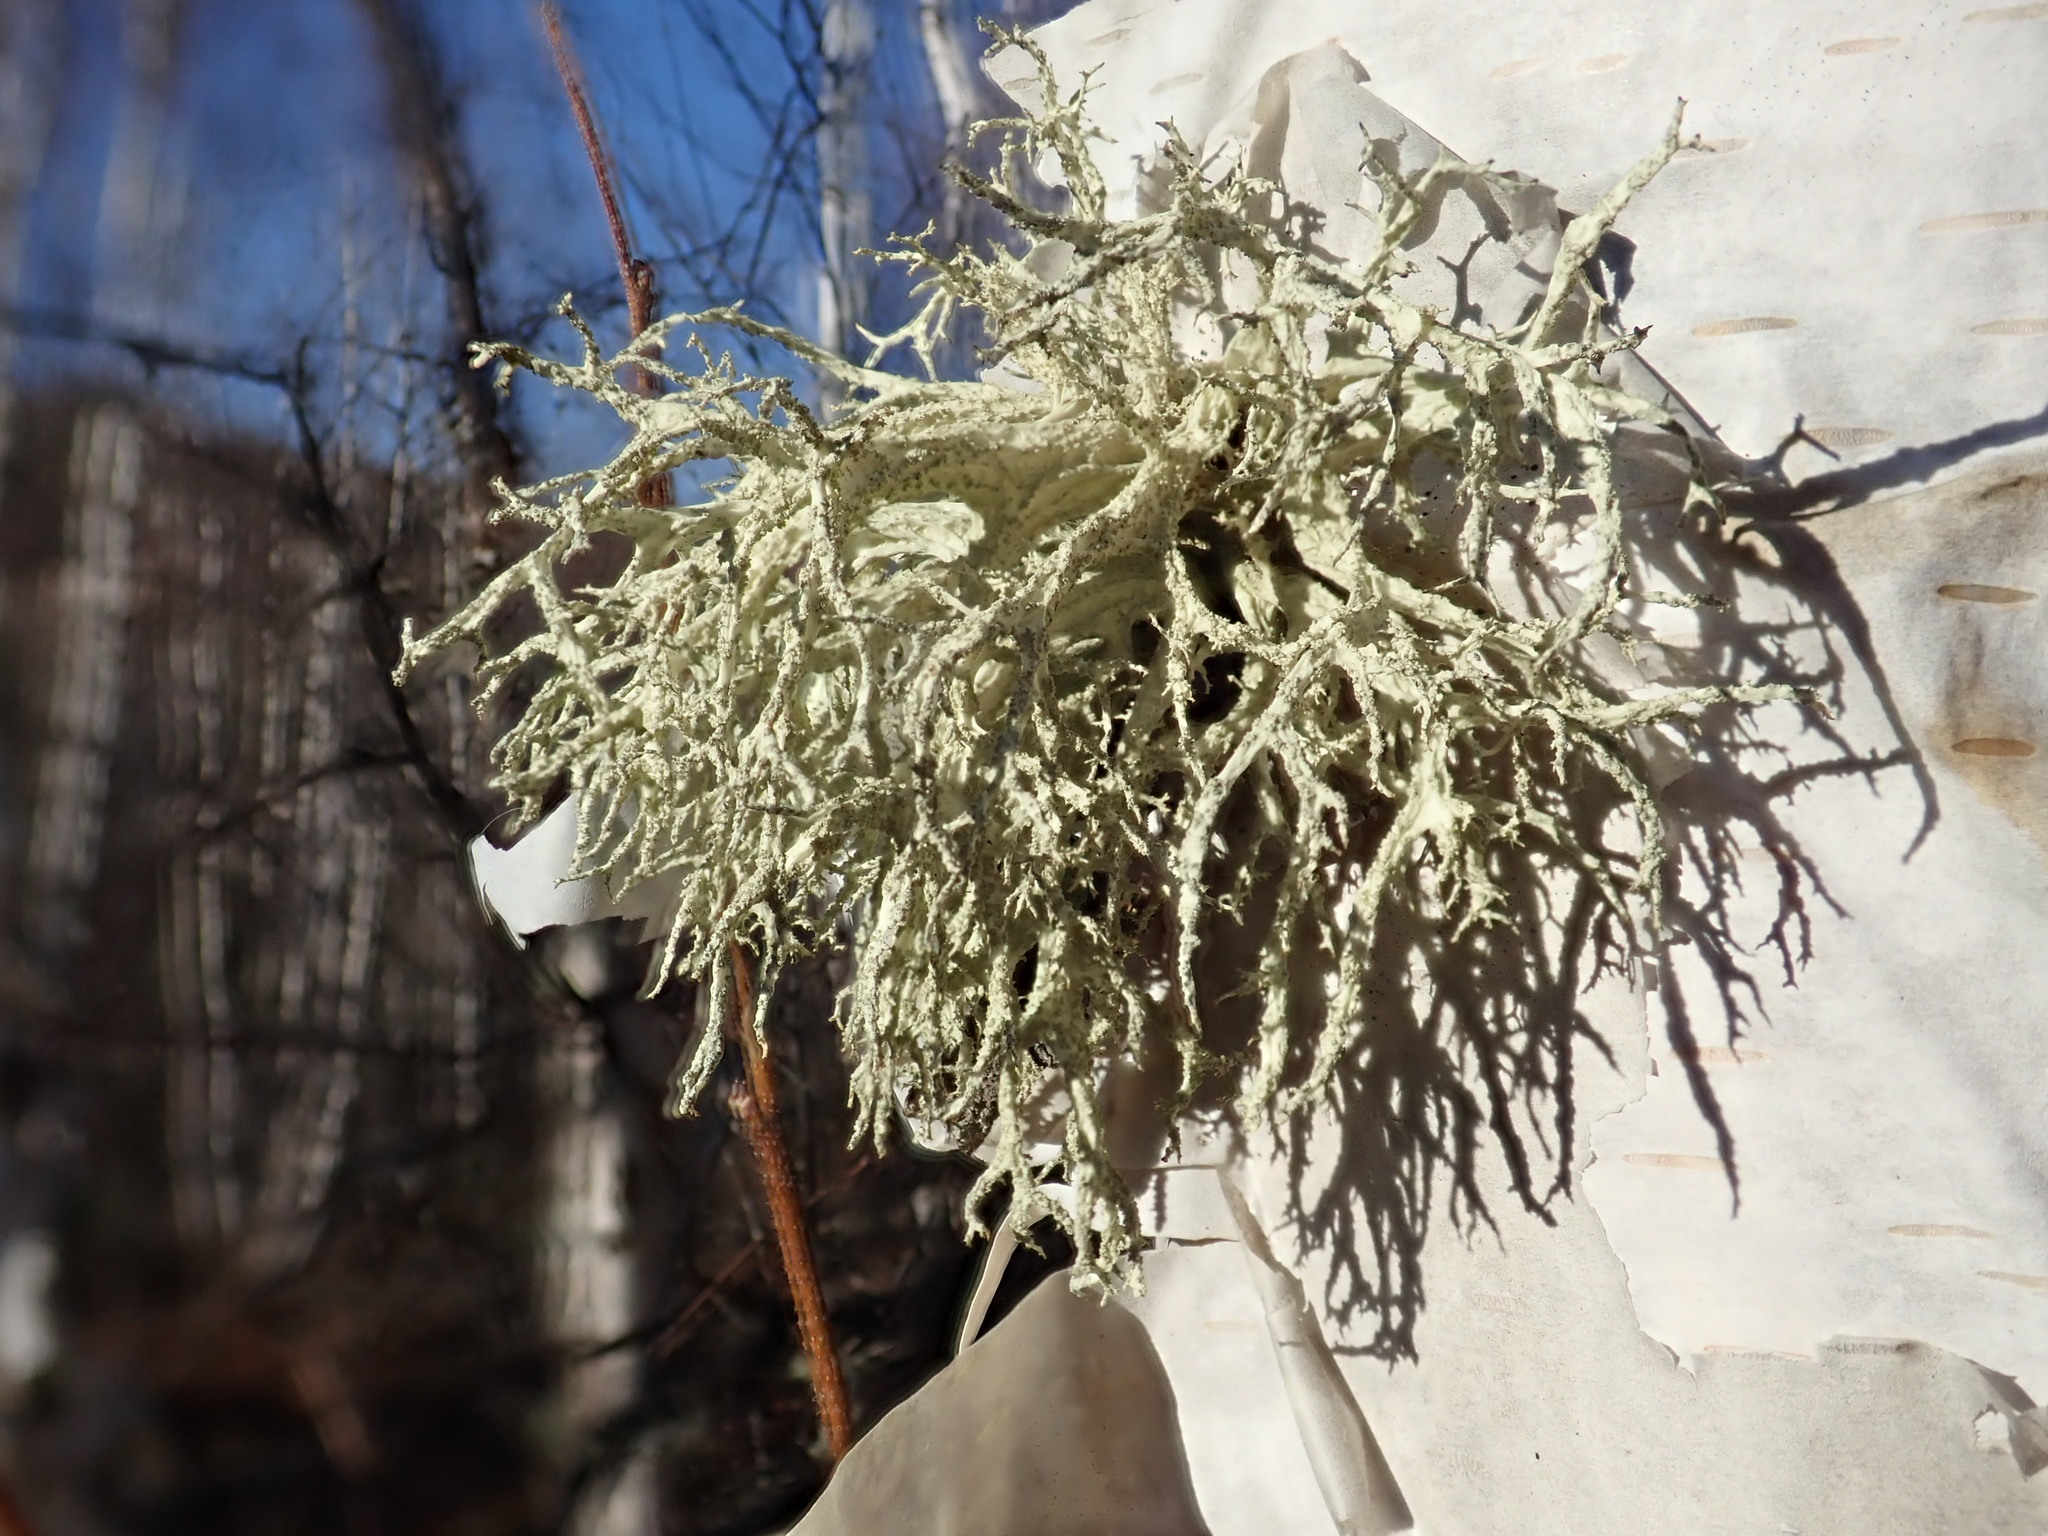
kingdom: Fungi
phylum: Ascomycota
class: Lecanoromycetes
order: Lecanorales
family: Parmeliaceae
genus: Evernia
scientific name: Evernia mesomorpha
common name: Boreal oak moss lichen
